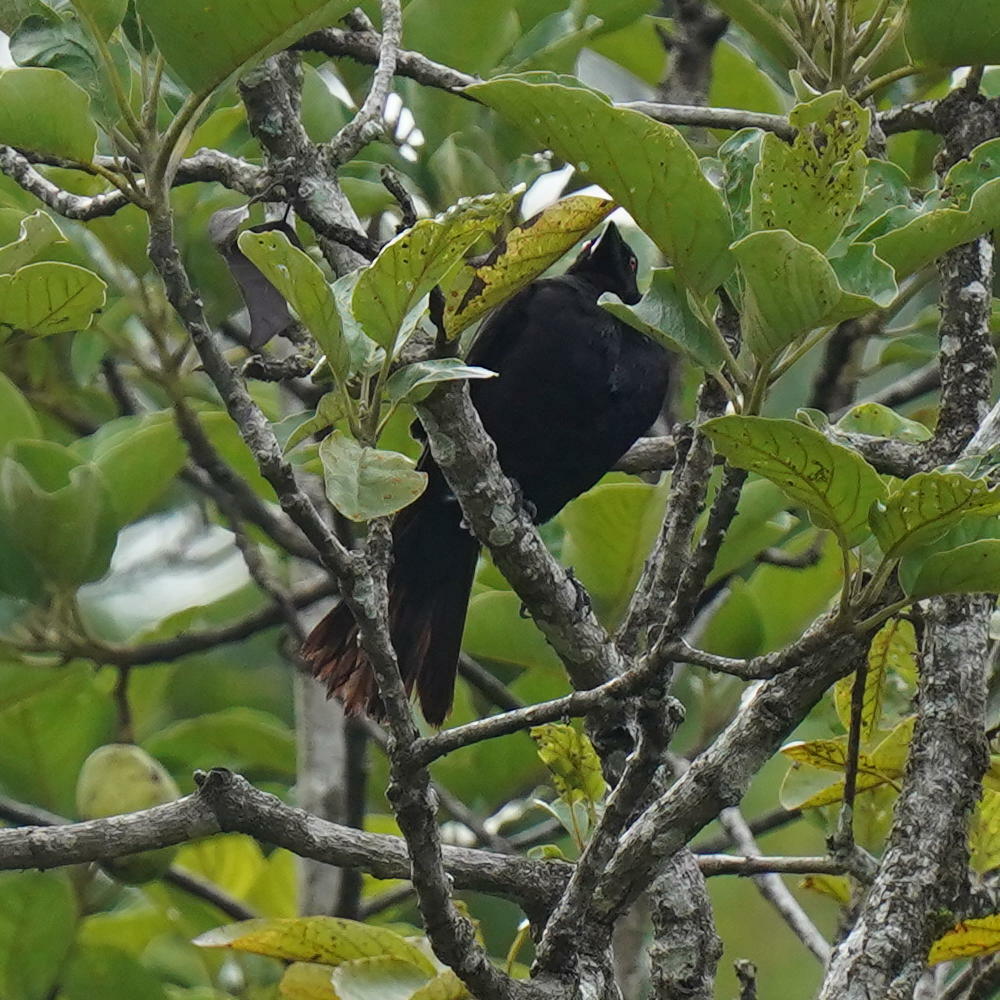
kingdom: Animalia
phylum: Chordata
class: Aves
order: Passeriformes
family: Icteridae
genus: Molothrus
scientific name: Molothrus oryzivorus
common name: Giant cowbird
